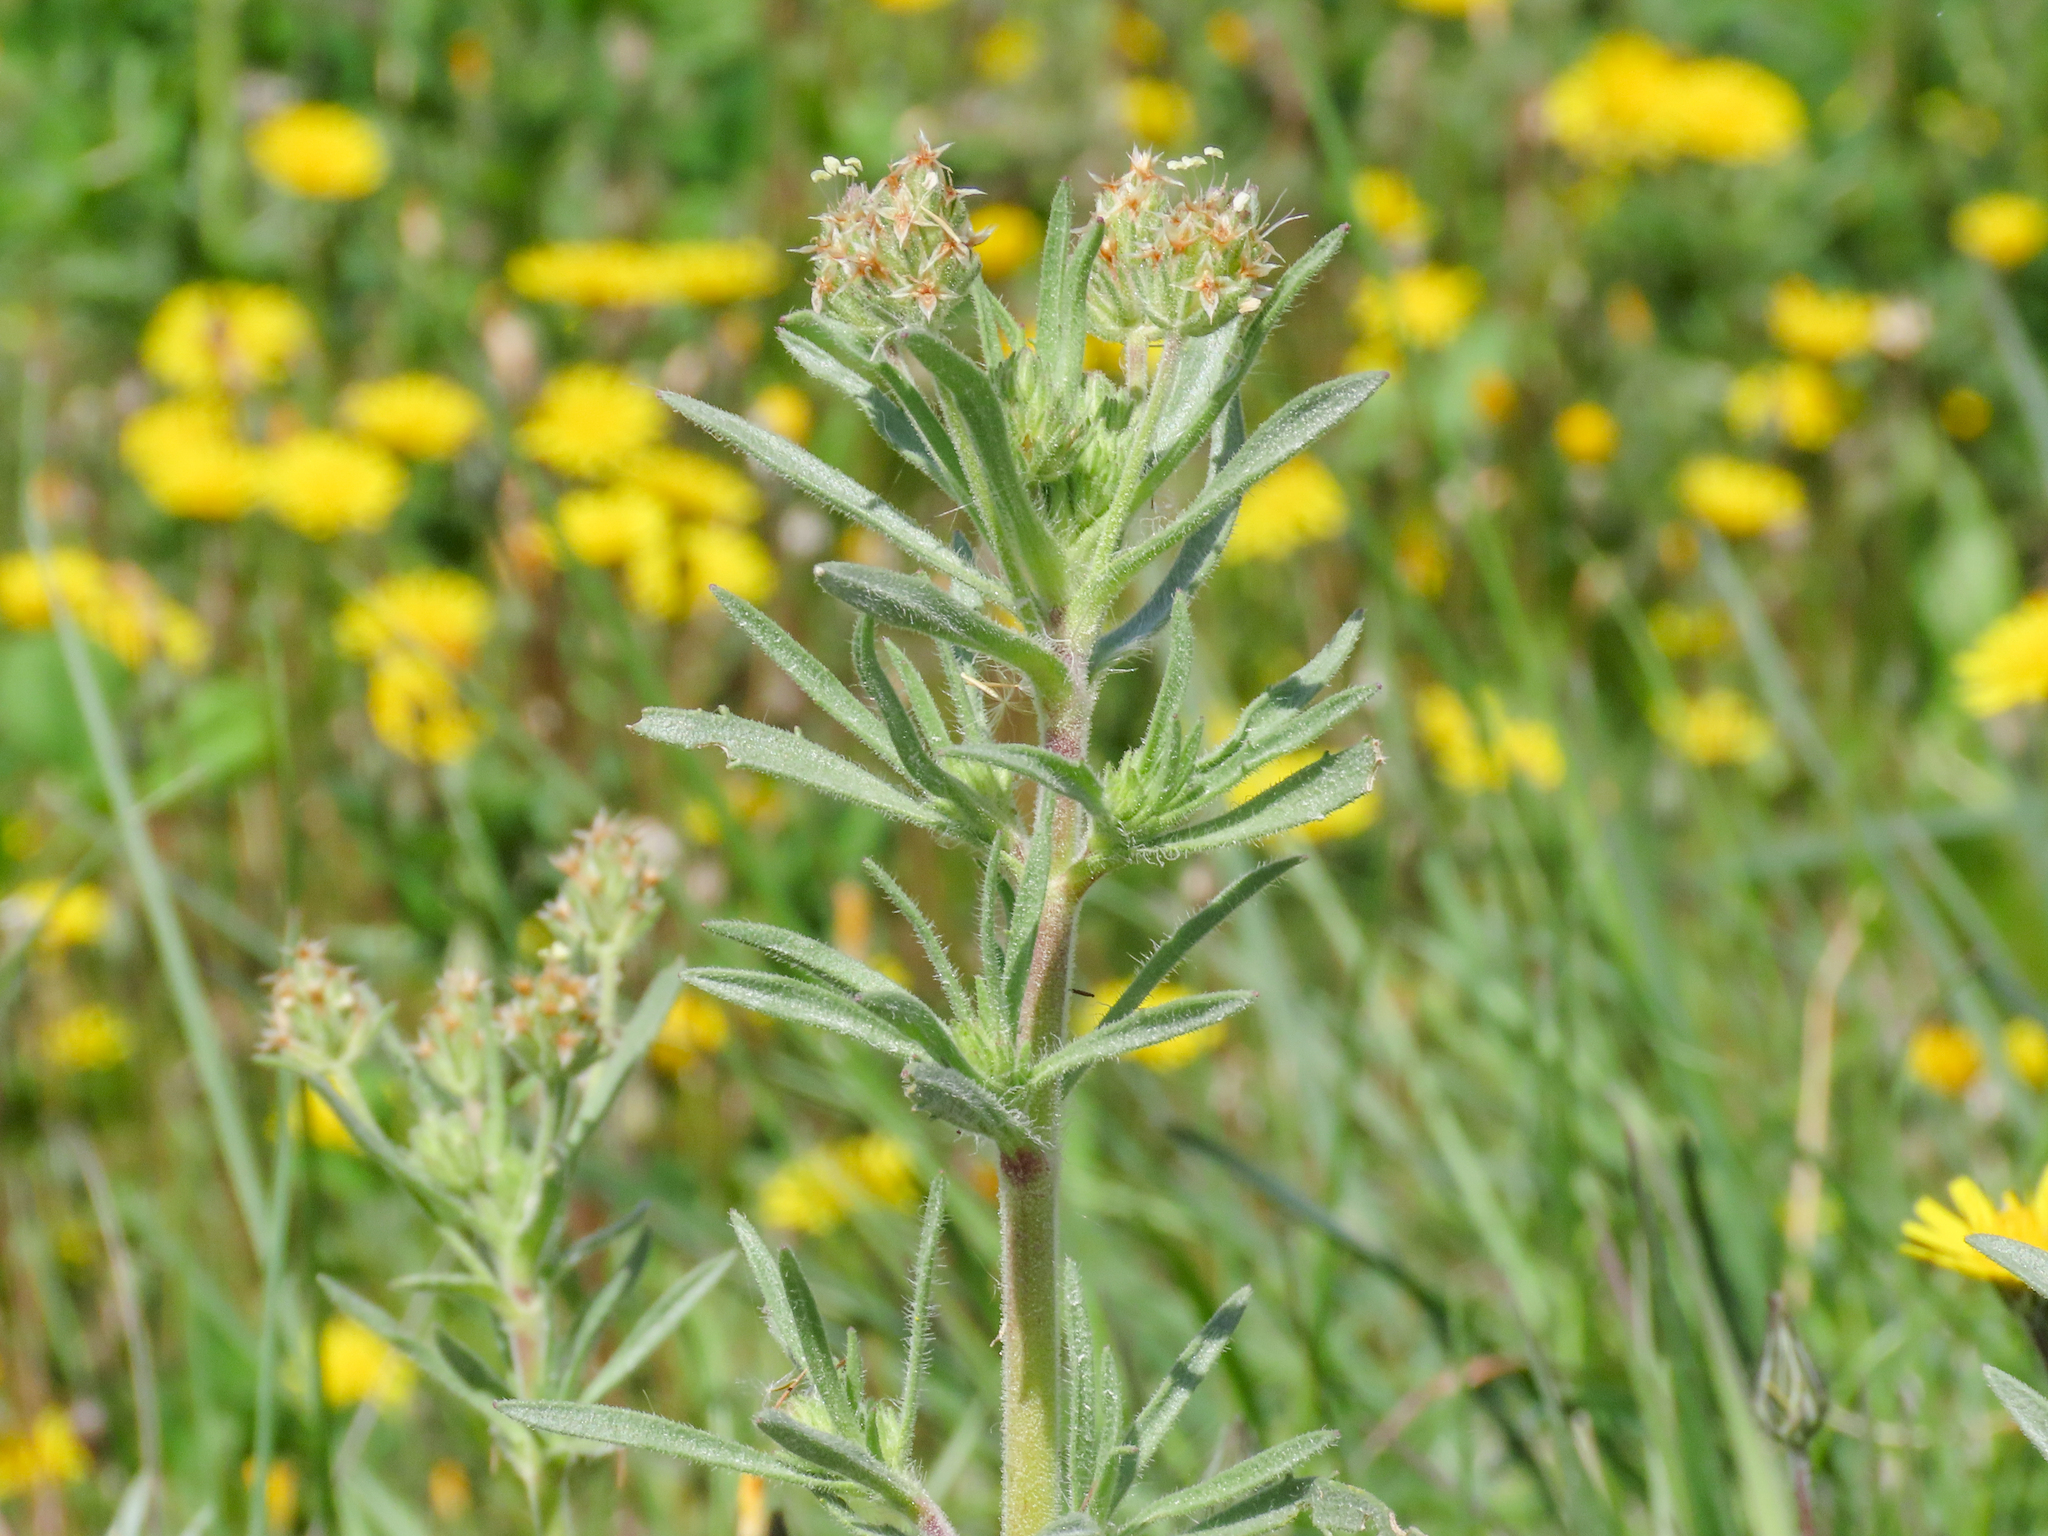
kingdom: Plantae
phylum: Tracheophyta
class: Magnoliopsida
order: Lamiales
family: Plantaginaceae
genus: Plantago
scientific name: Plantago afra
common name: Glandular plantain
